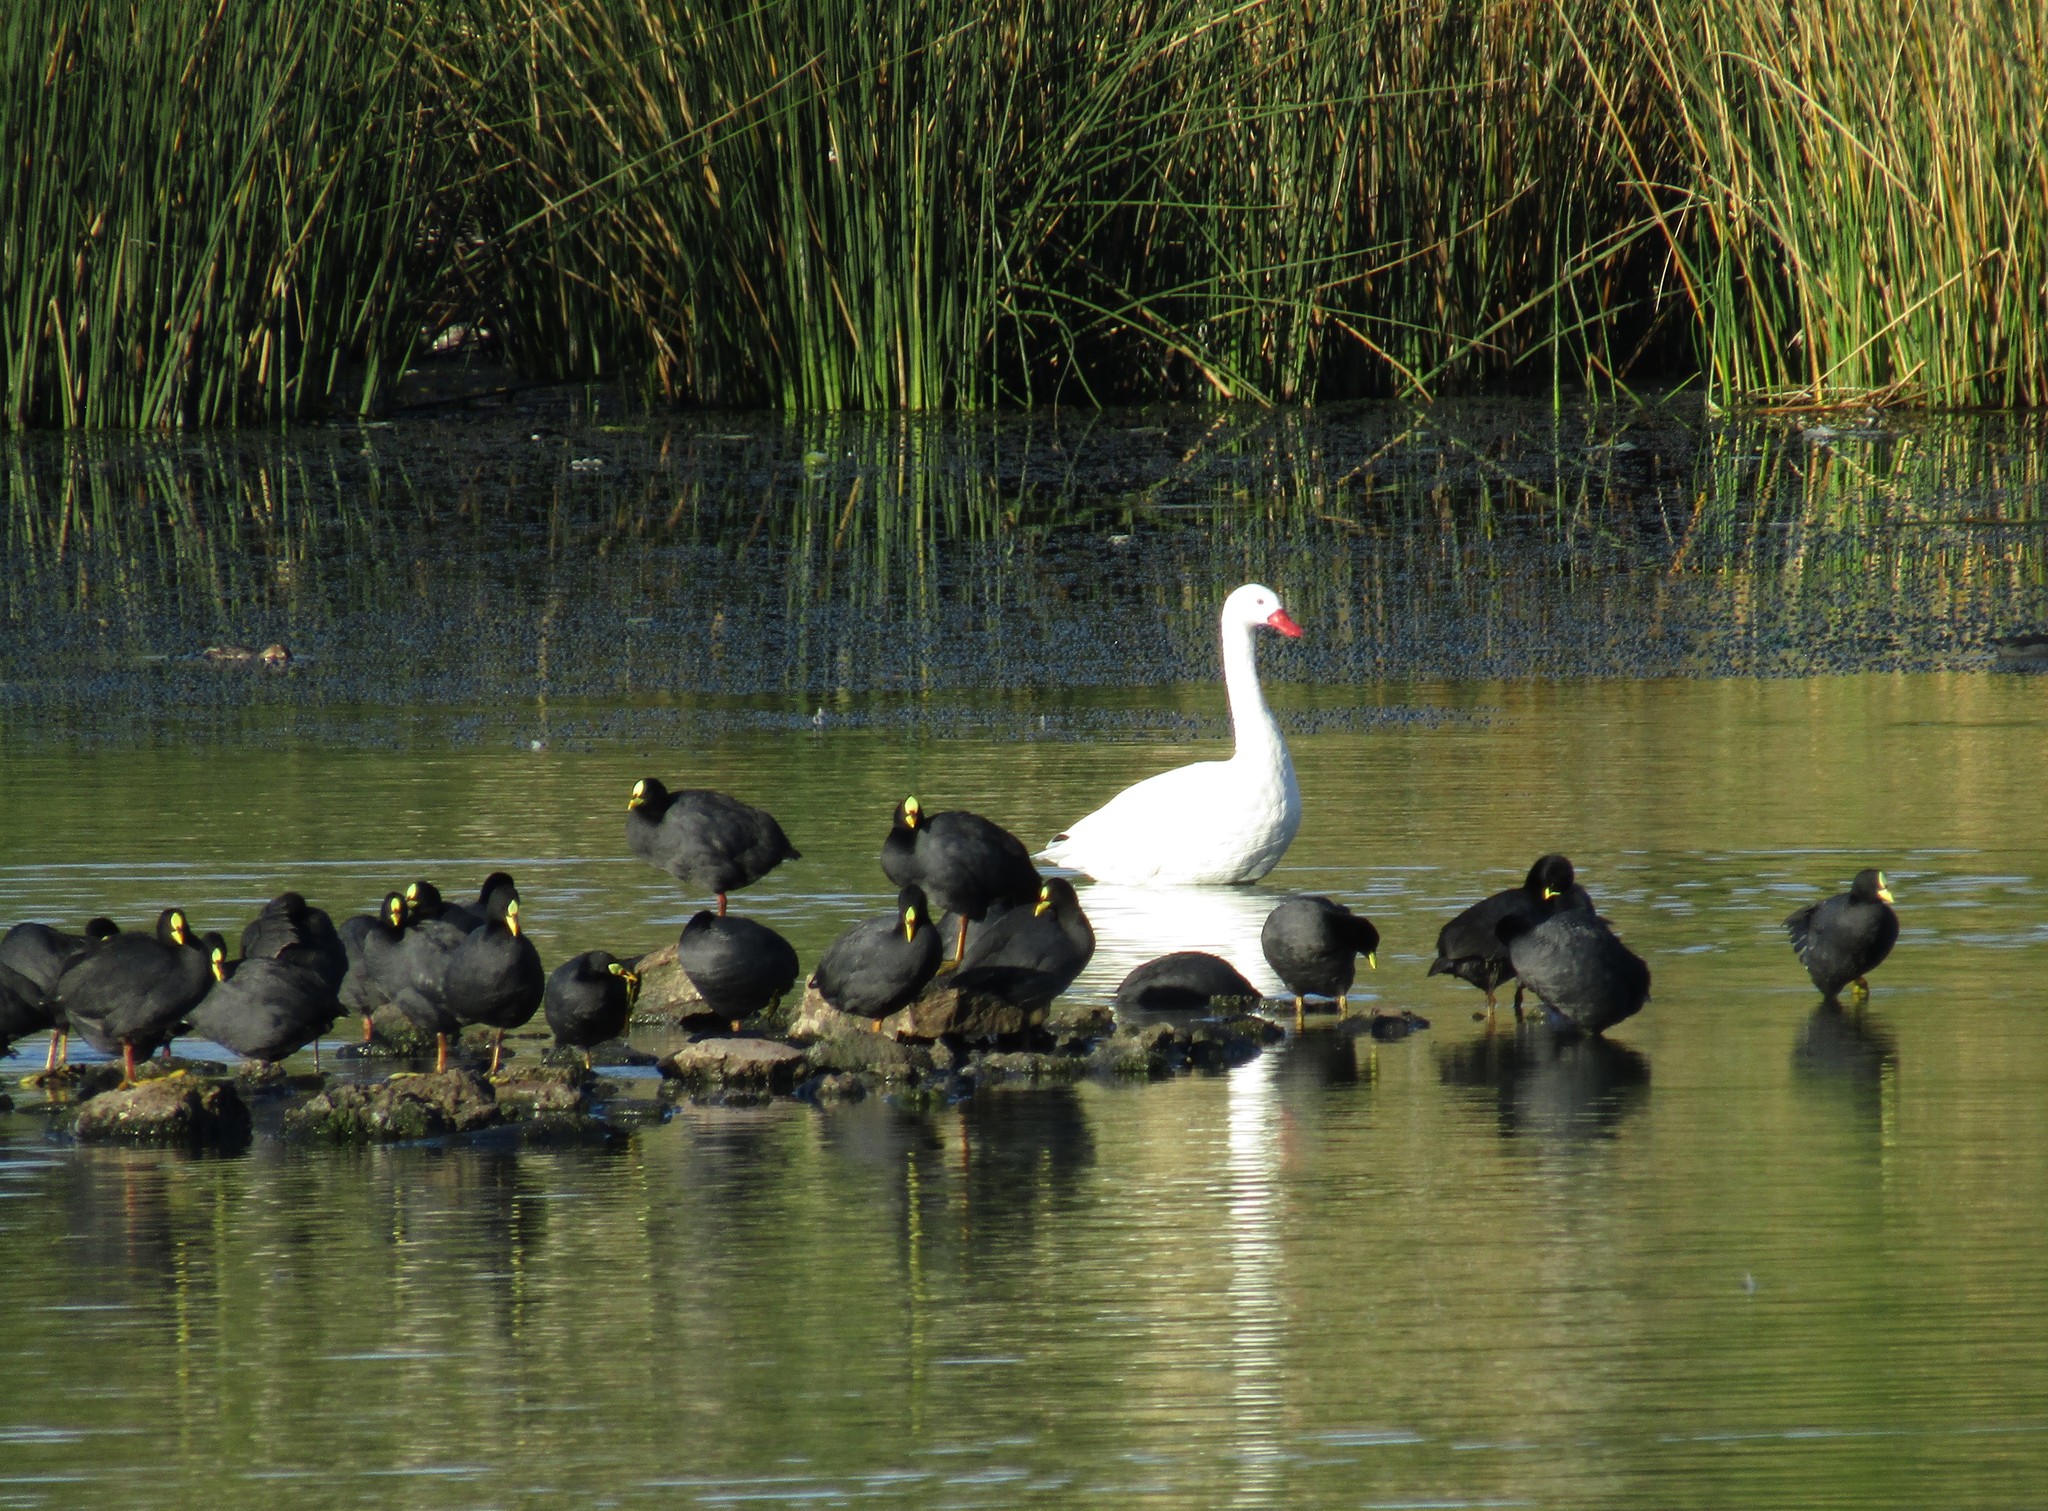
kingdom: Animalia
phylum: Chordata
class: Aves
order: Gruiformes
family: Rallidae
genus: Fulica
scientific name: Fulica armillata
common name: Red-gartered coot
